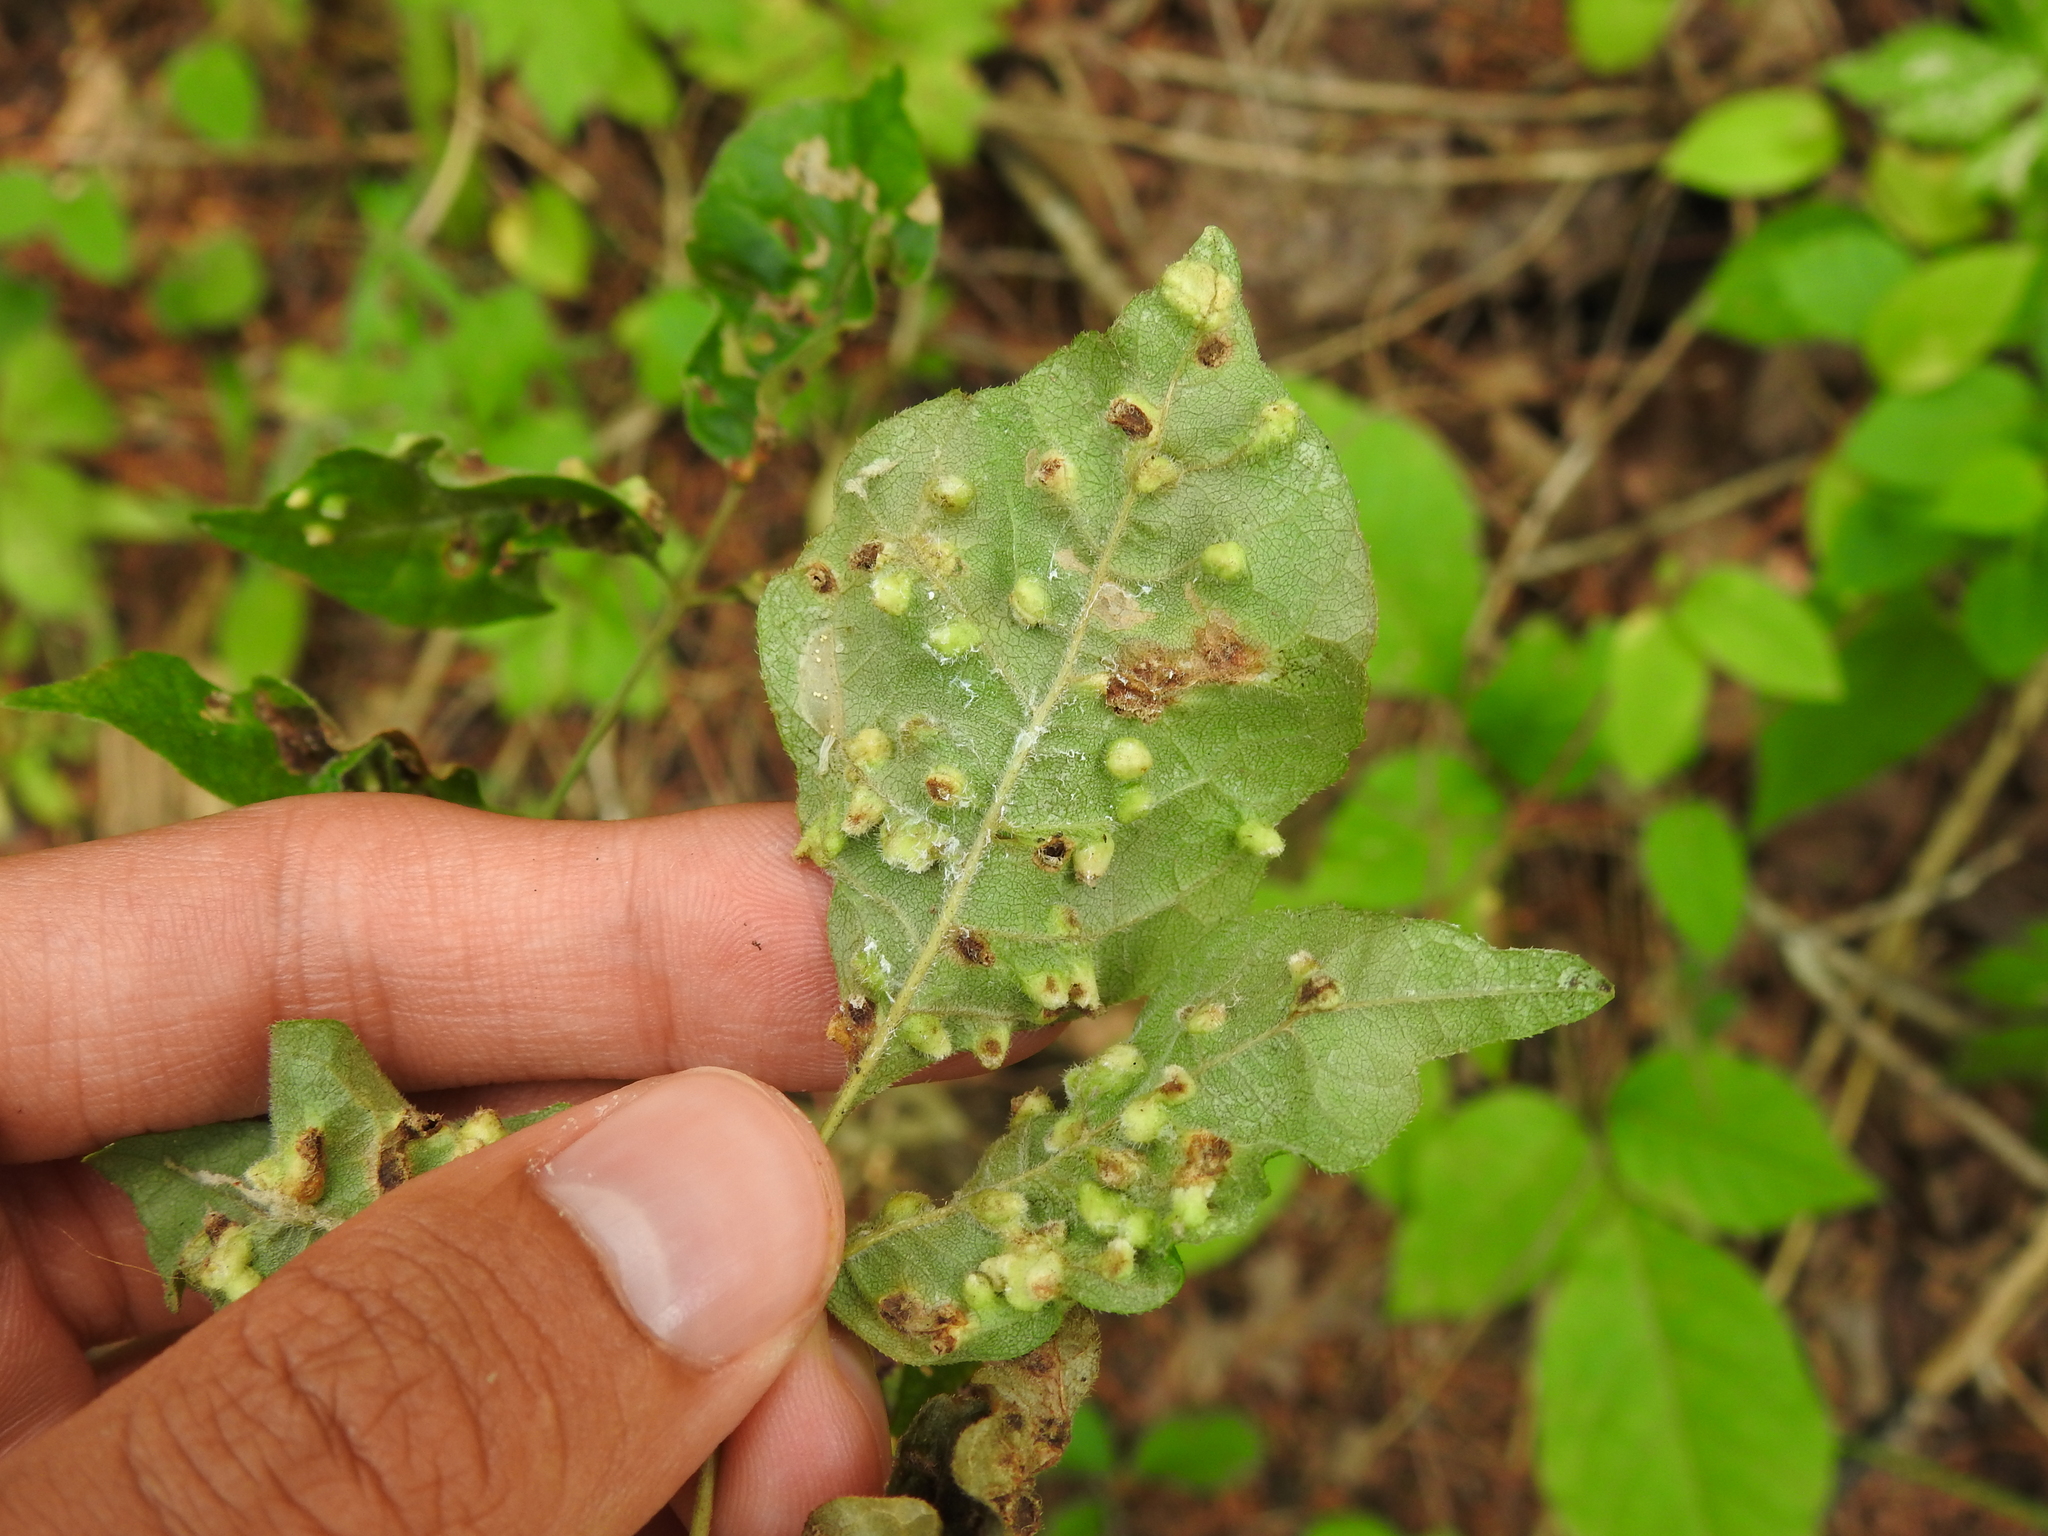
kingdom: Animalia
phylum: Arthropoda
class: Arachnida
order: Trombidiformes
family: Eriophyidae
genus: Aceria
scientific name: Aceria fraxinicola
